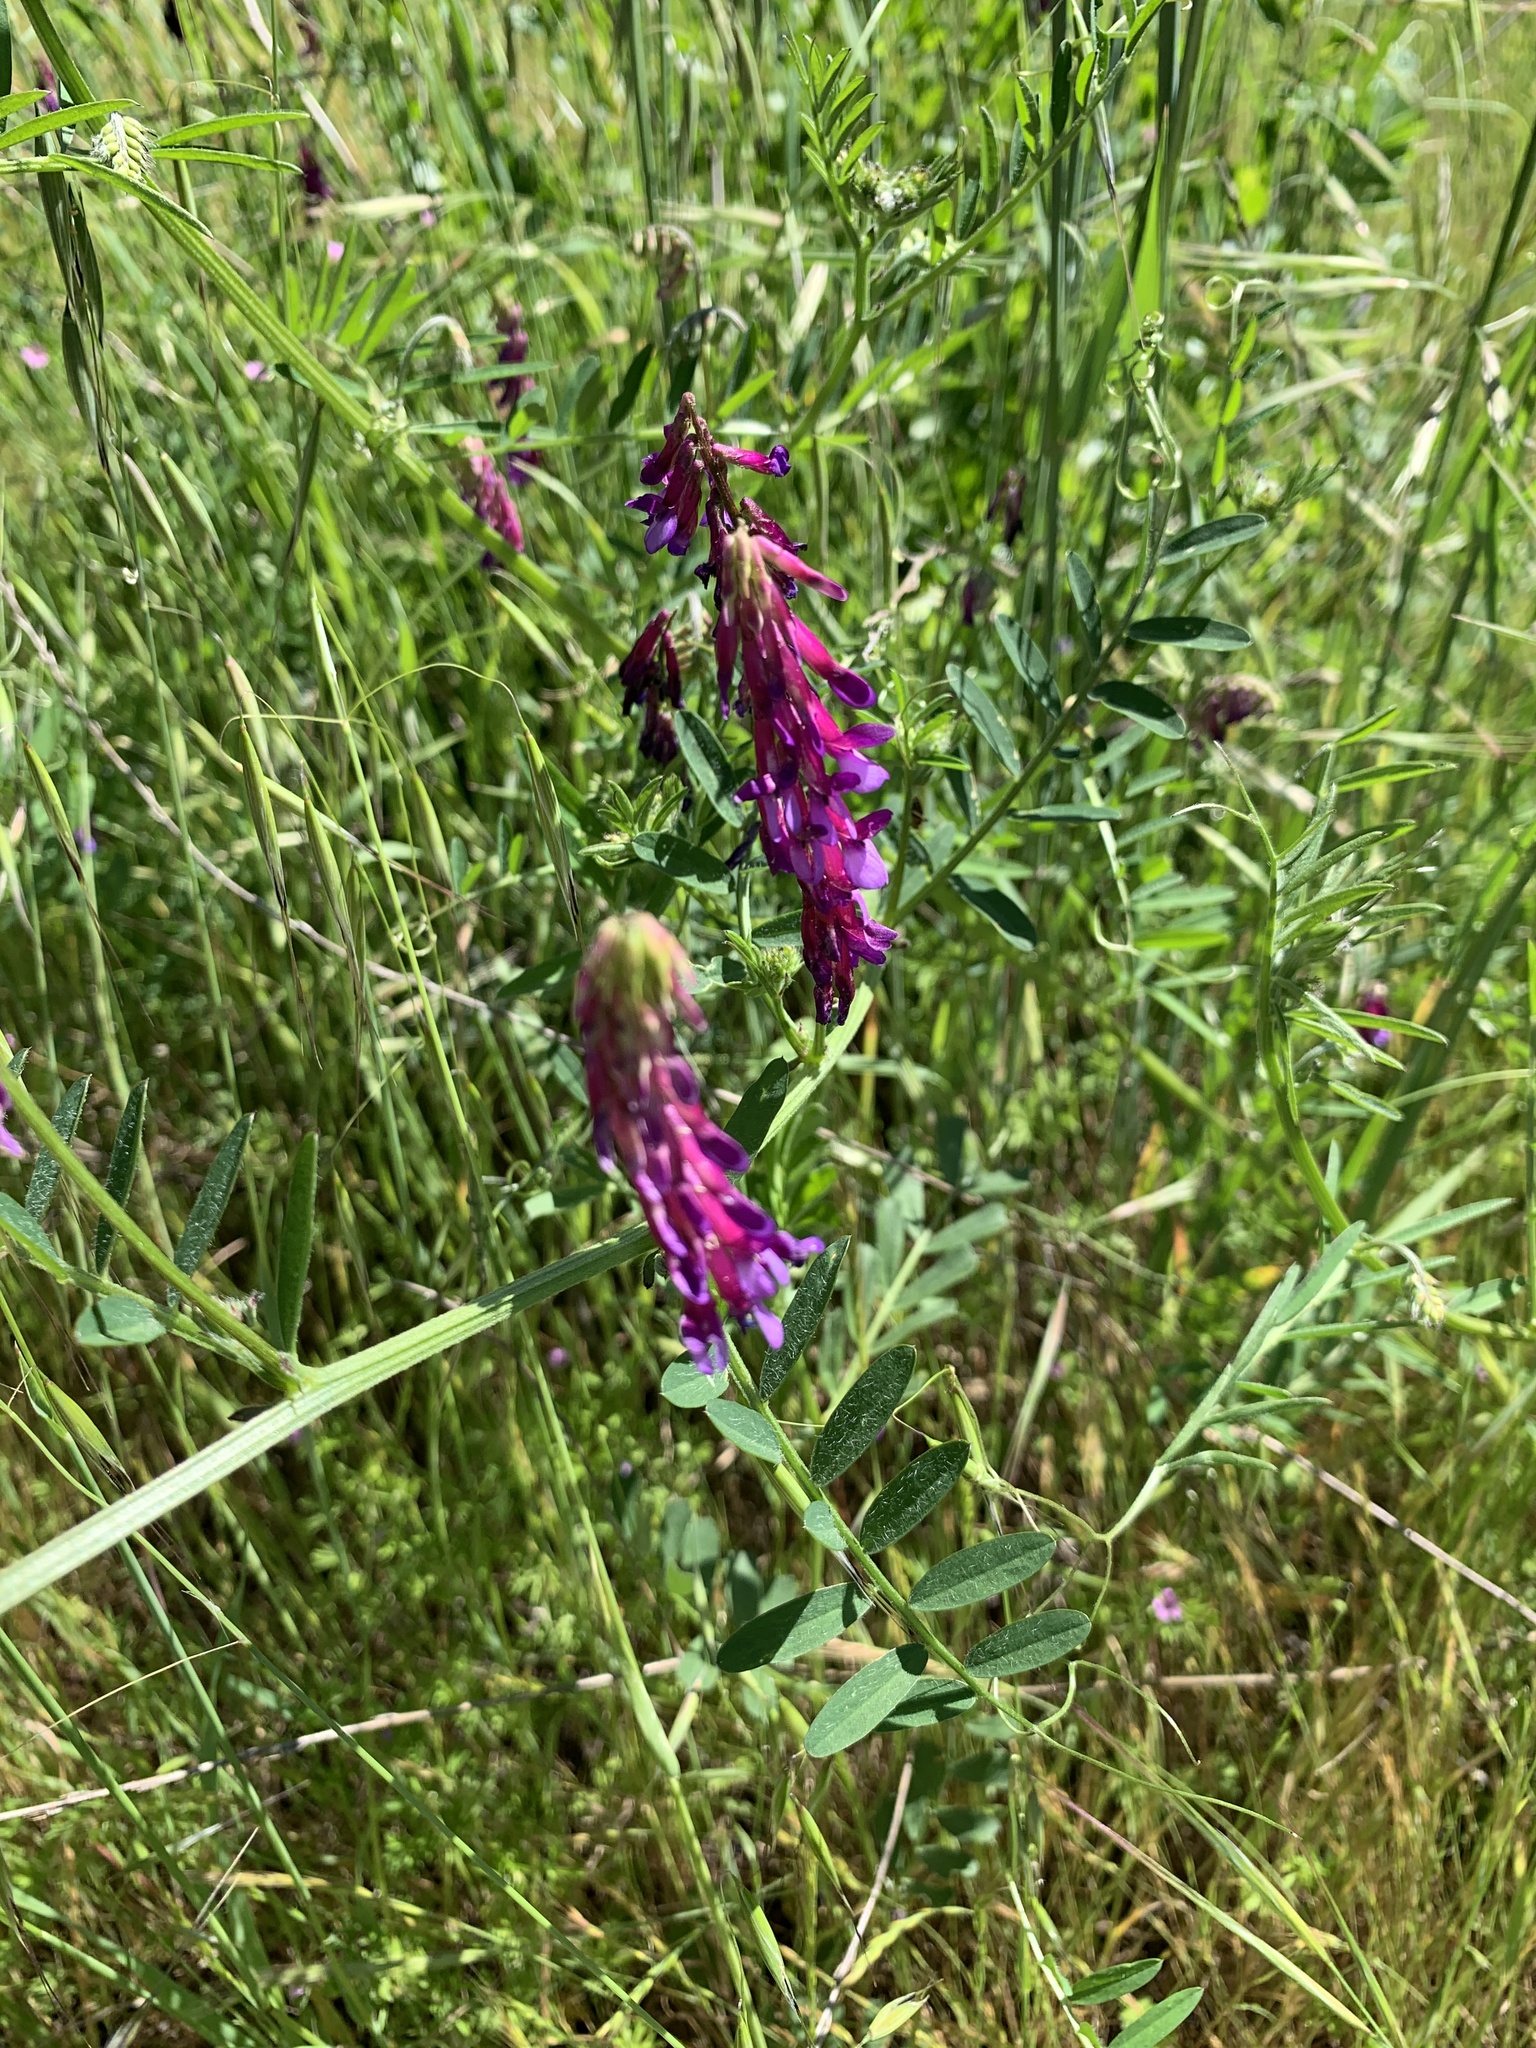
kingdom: Plantae
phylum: Tracheophyta
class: Magnoliopsida
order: Fabales
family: Fabaceae
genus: Vicia
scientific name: Vicia villosa
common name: Fodder vetch
